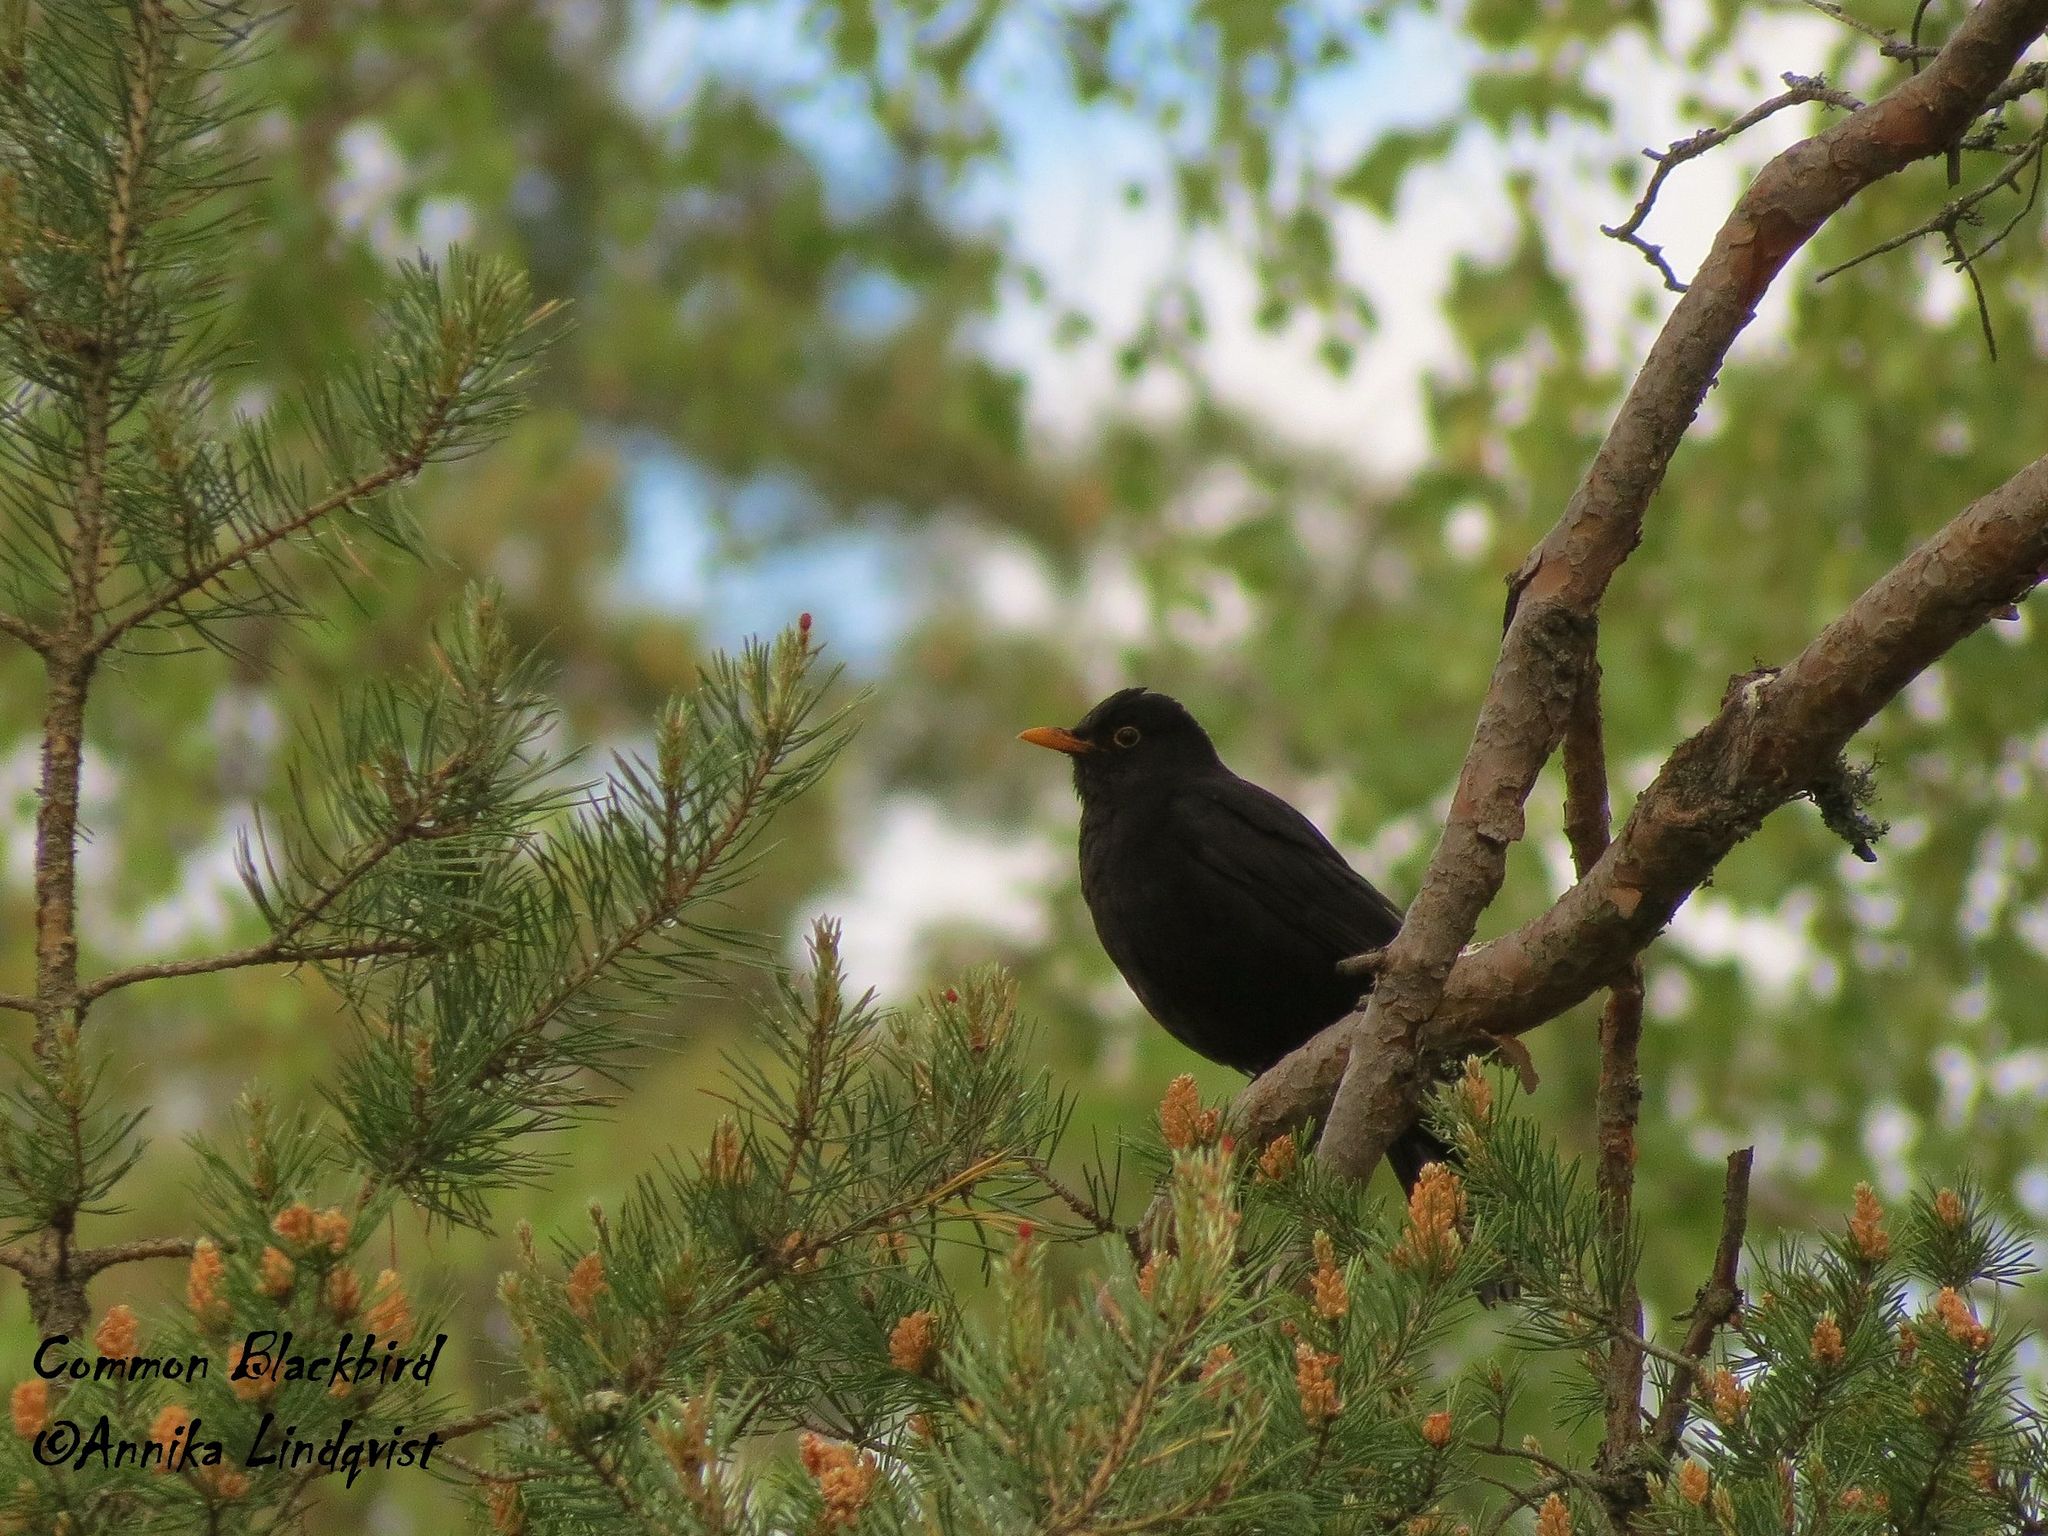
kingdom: Animalia
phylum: Chordata
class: Aves
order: Passeriformes
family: Turdidae
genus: Turdus
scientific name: Turdus merula
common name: Common blackbird
